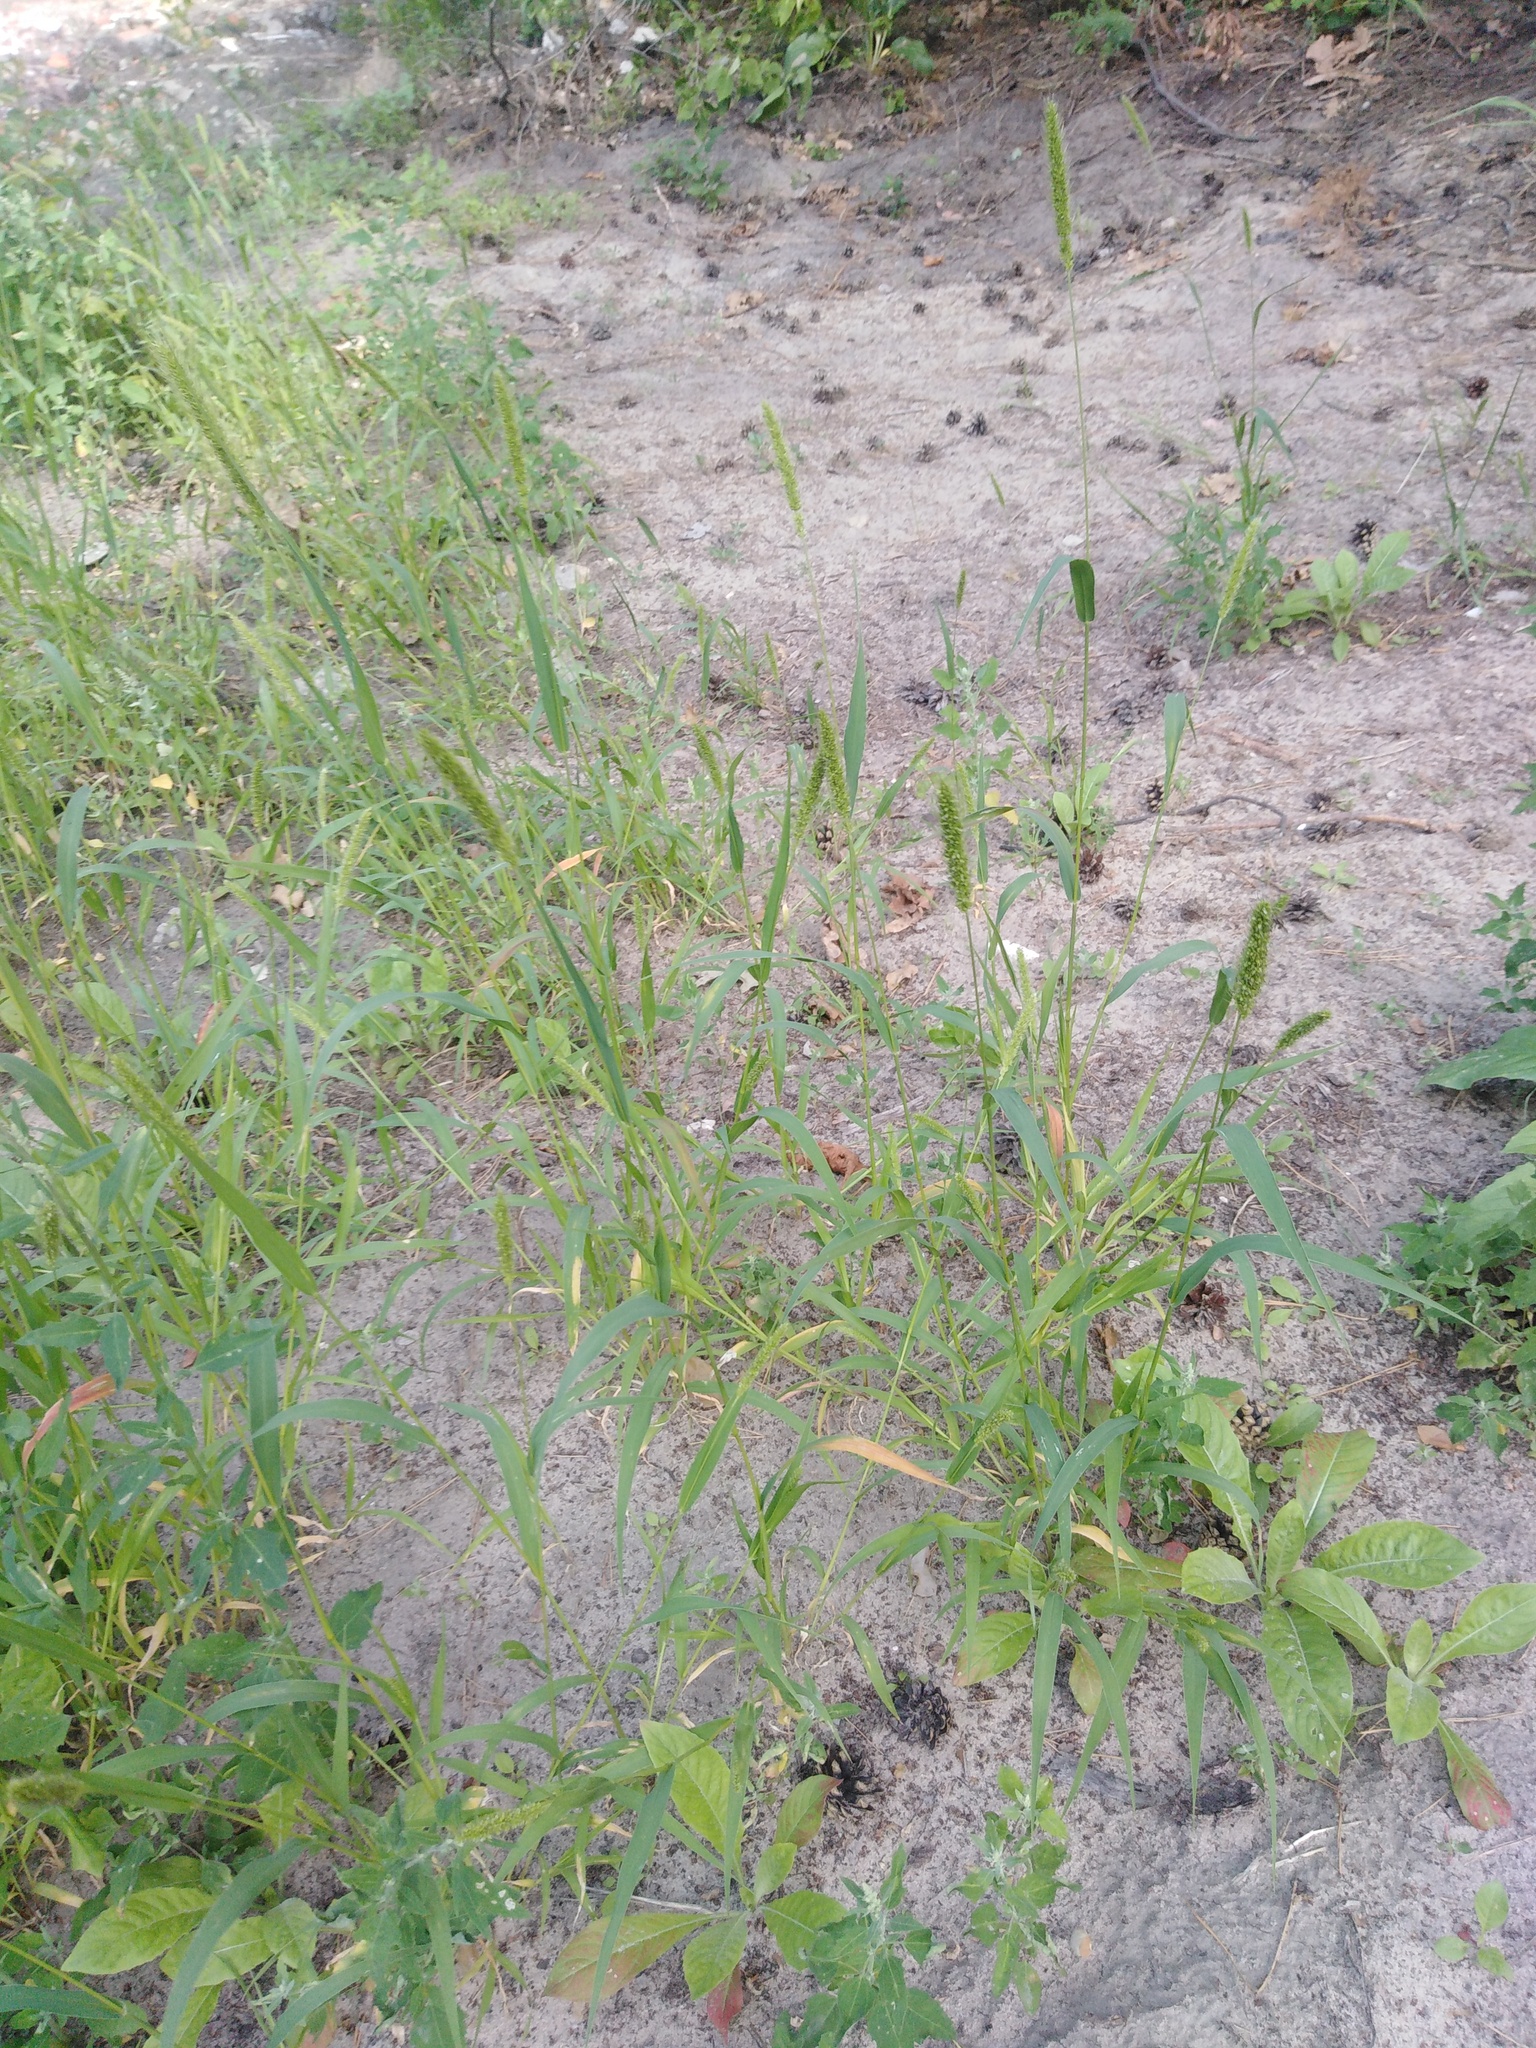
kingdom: Plantae
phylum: Tracheophyta
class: Liliopsida
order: Poales
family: Poaceae
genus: Setaria
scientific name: Setaria viridis
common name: Green bristlegrass
